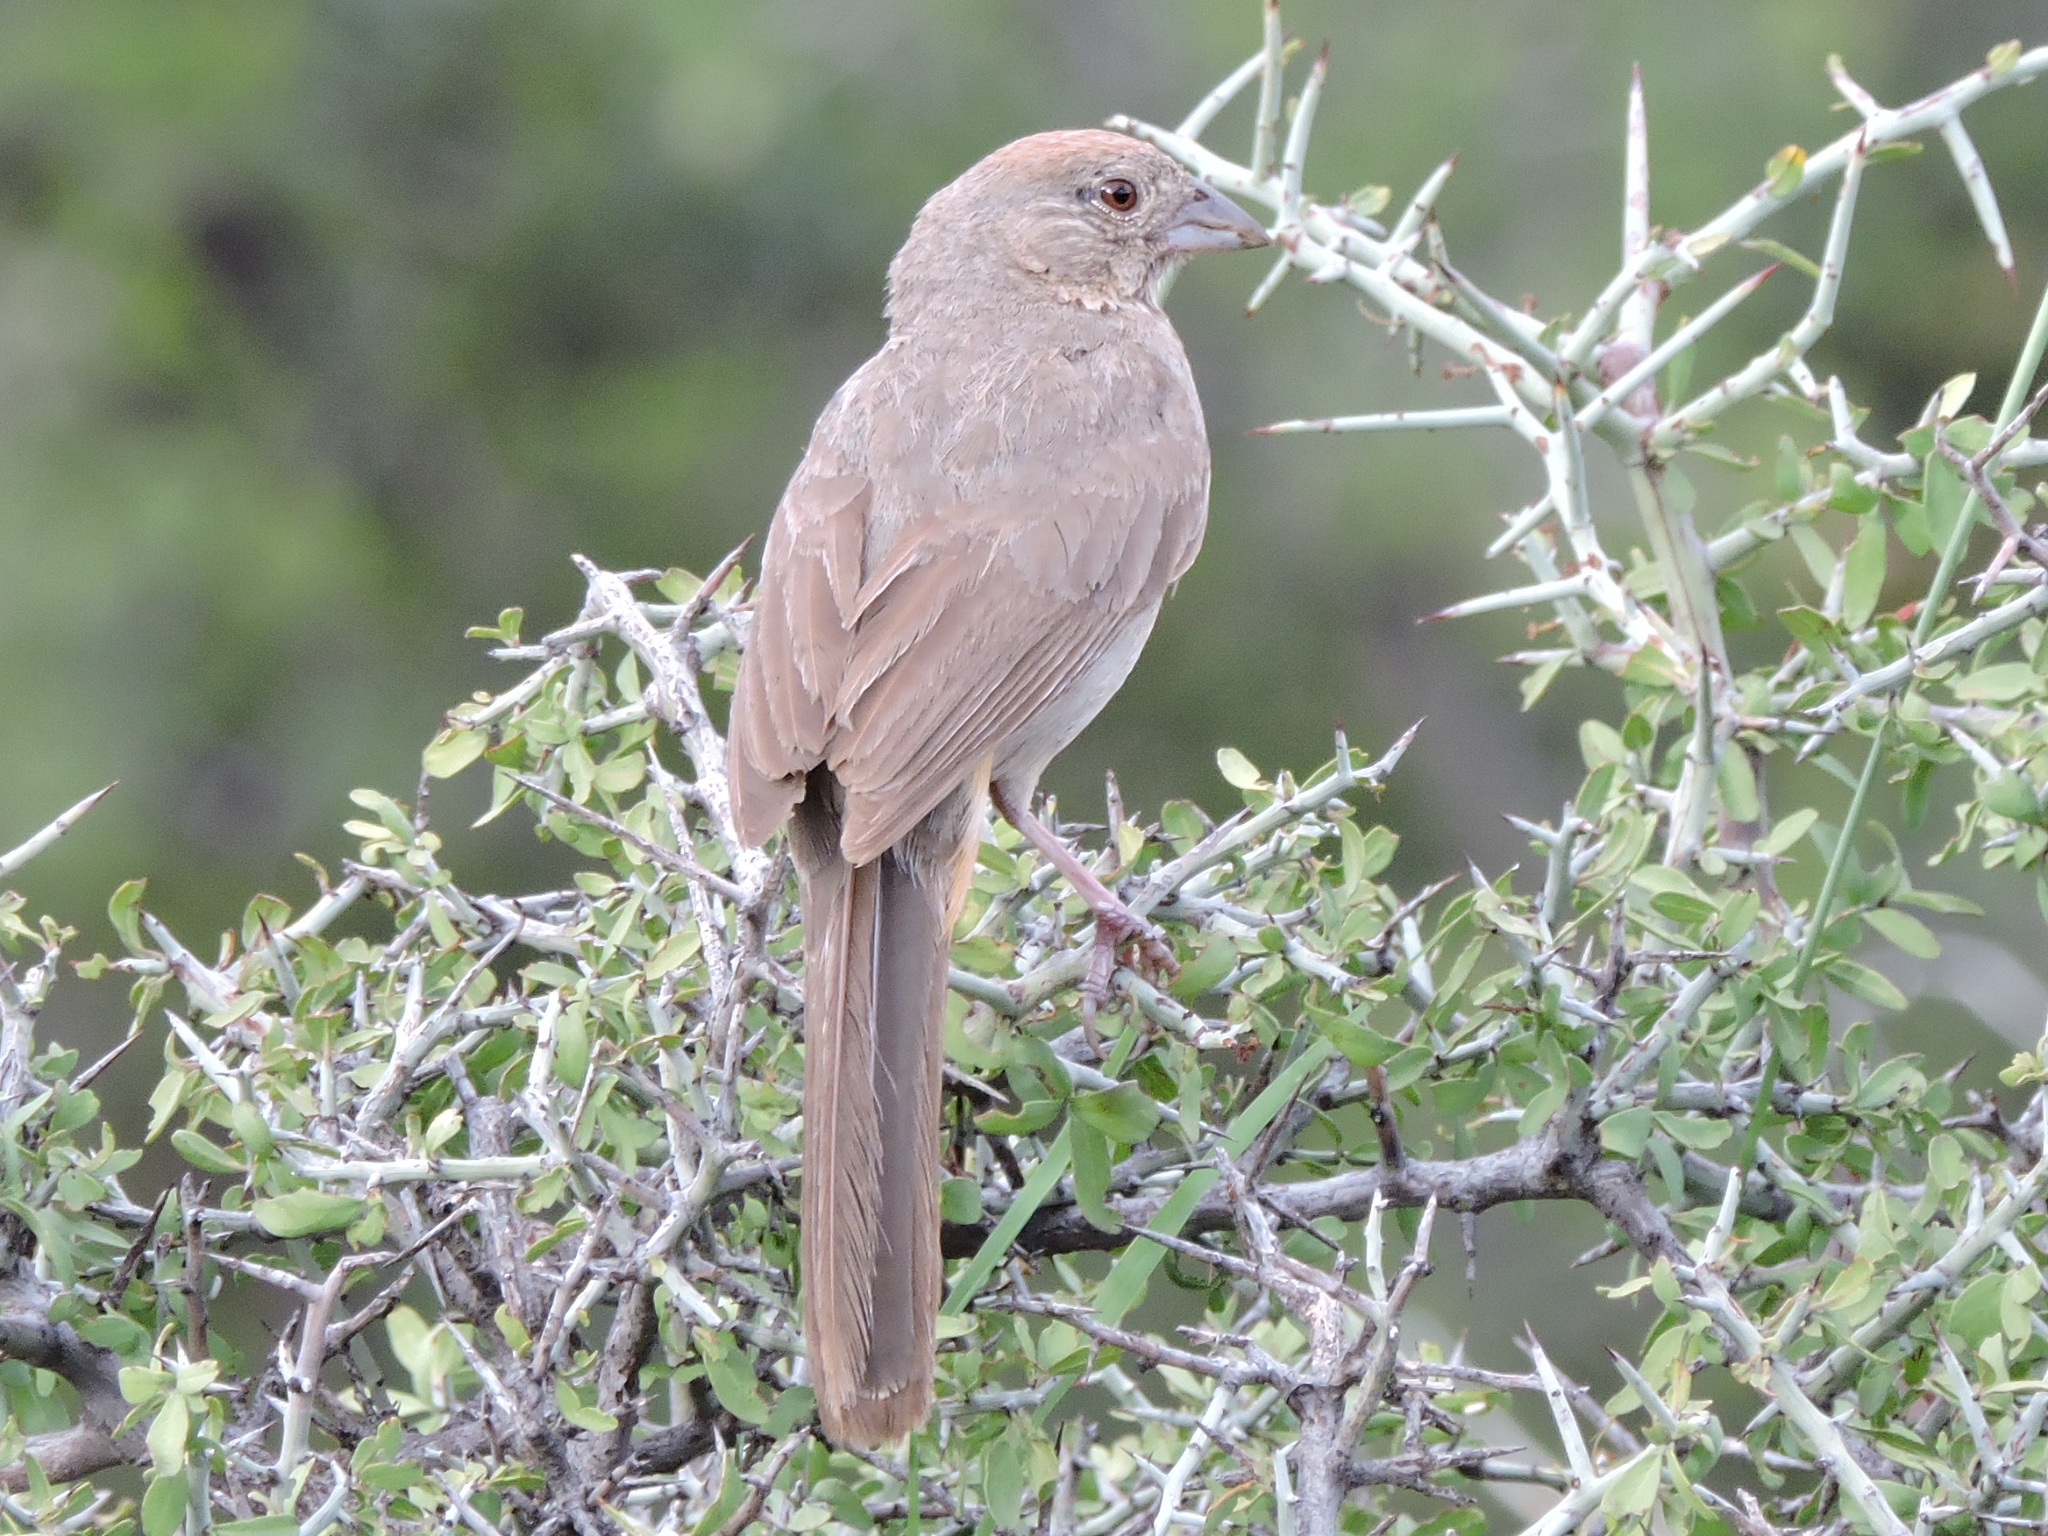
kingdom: Animalia
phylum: Chordata
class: Aves
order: Passeriformes
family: Passerellidae
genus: Melozone
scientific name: Melozone fusca
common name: Canyon towhee
